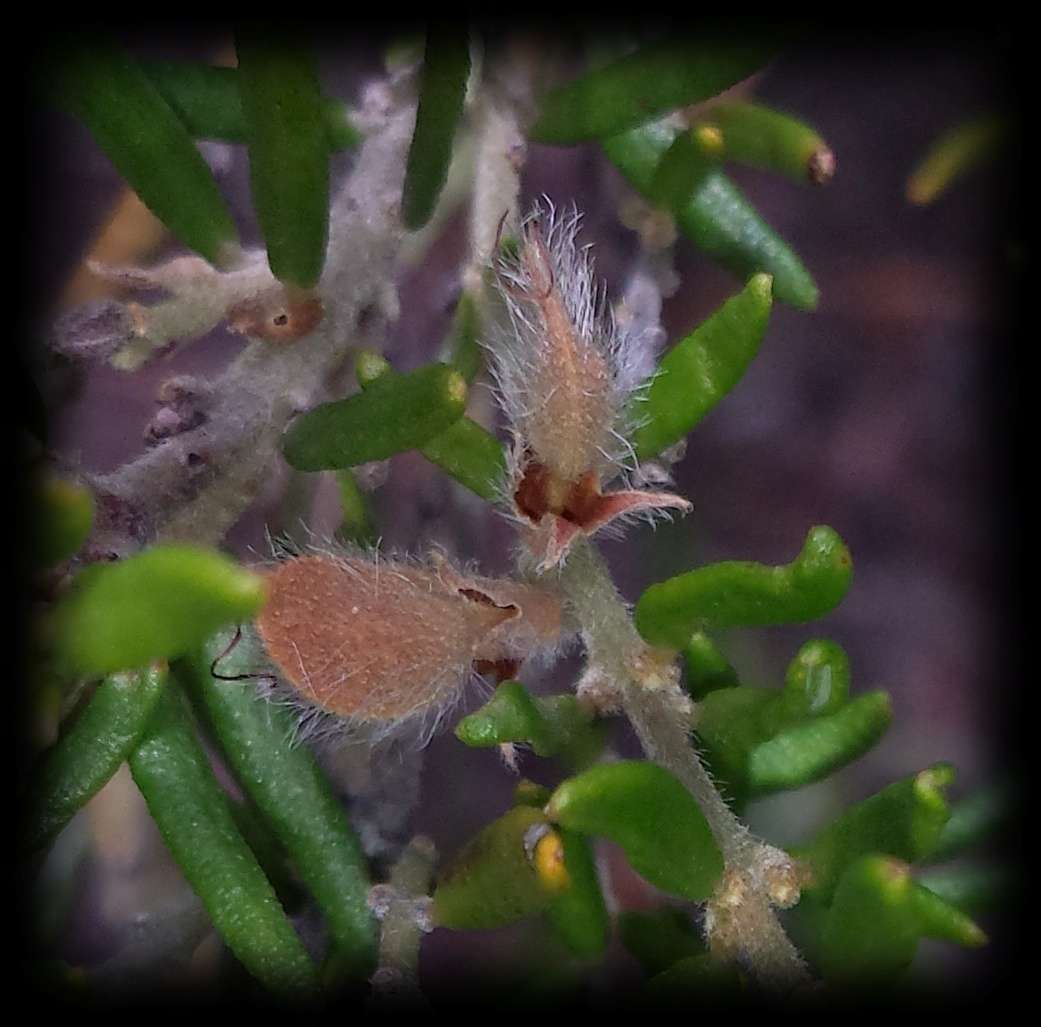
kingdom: Plantae
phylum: Tracheophyta
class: Magnoliopsida
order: Fabales
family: Fabaceae
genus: Aotus
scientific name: Aotus ericoides
